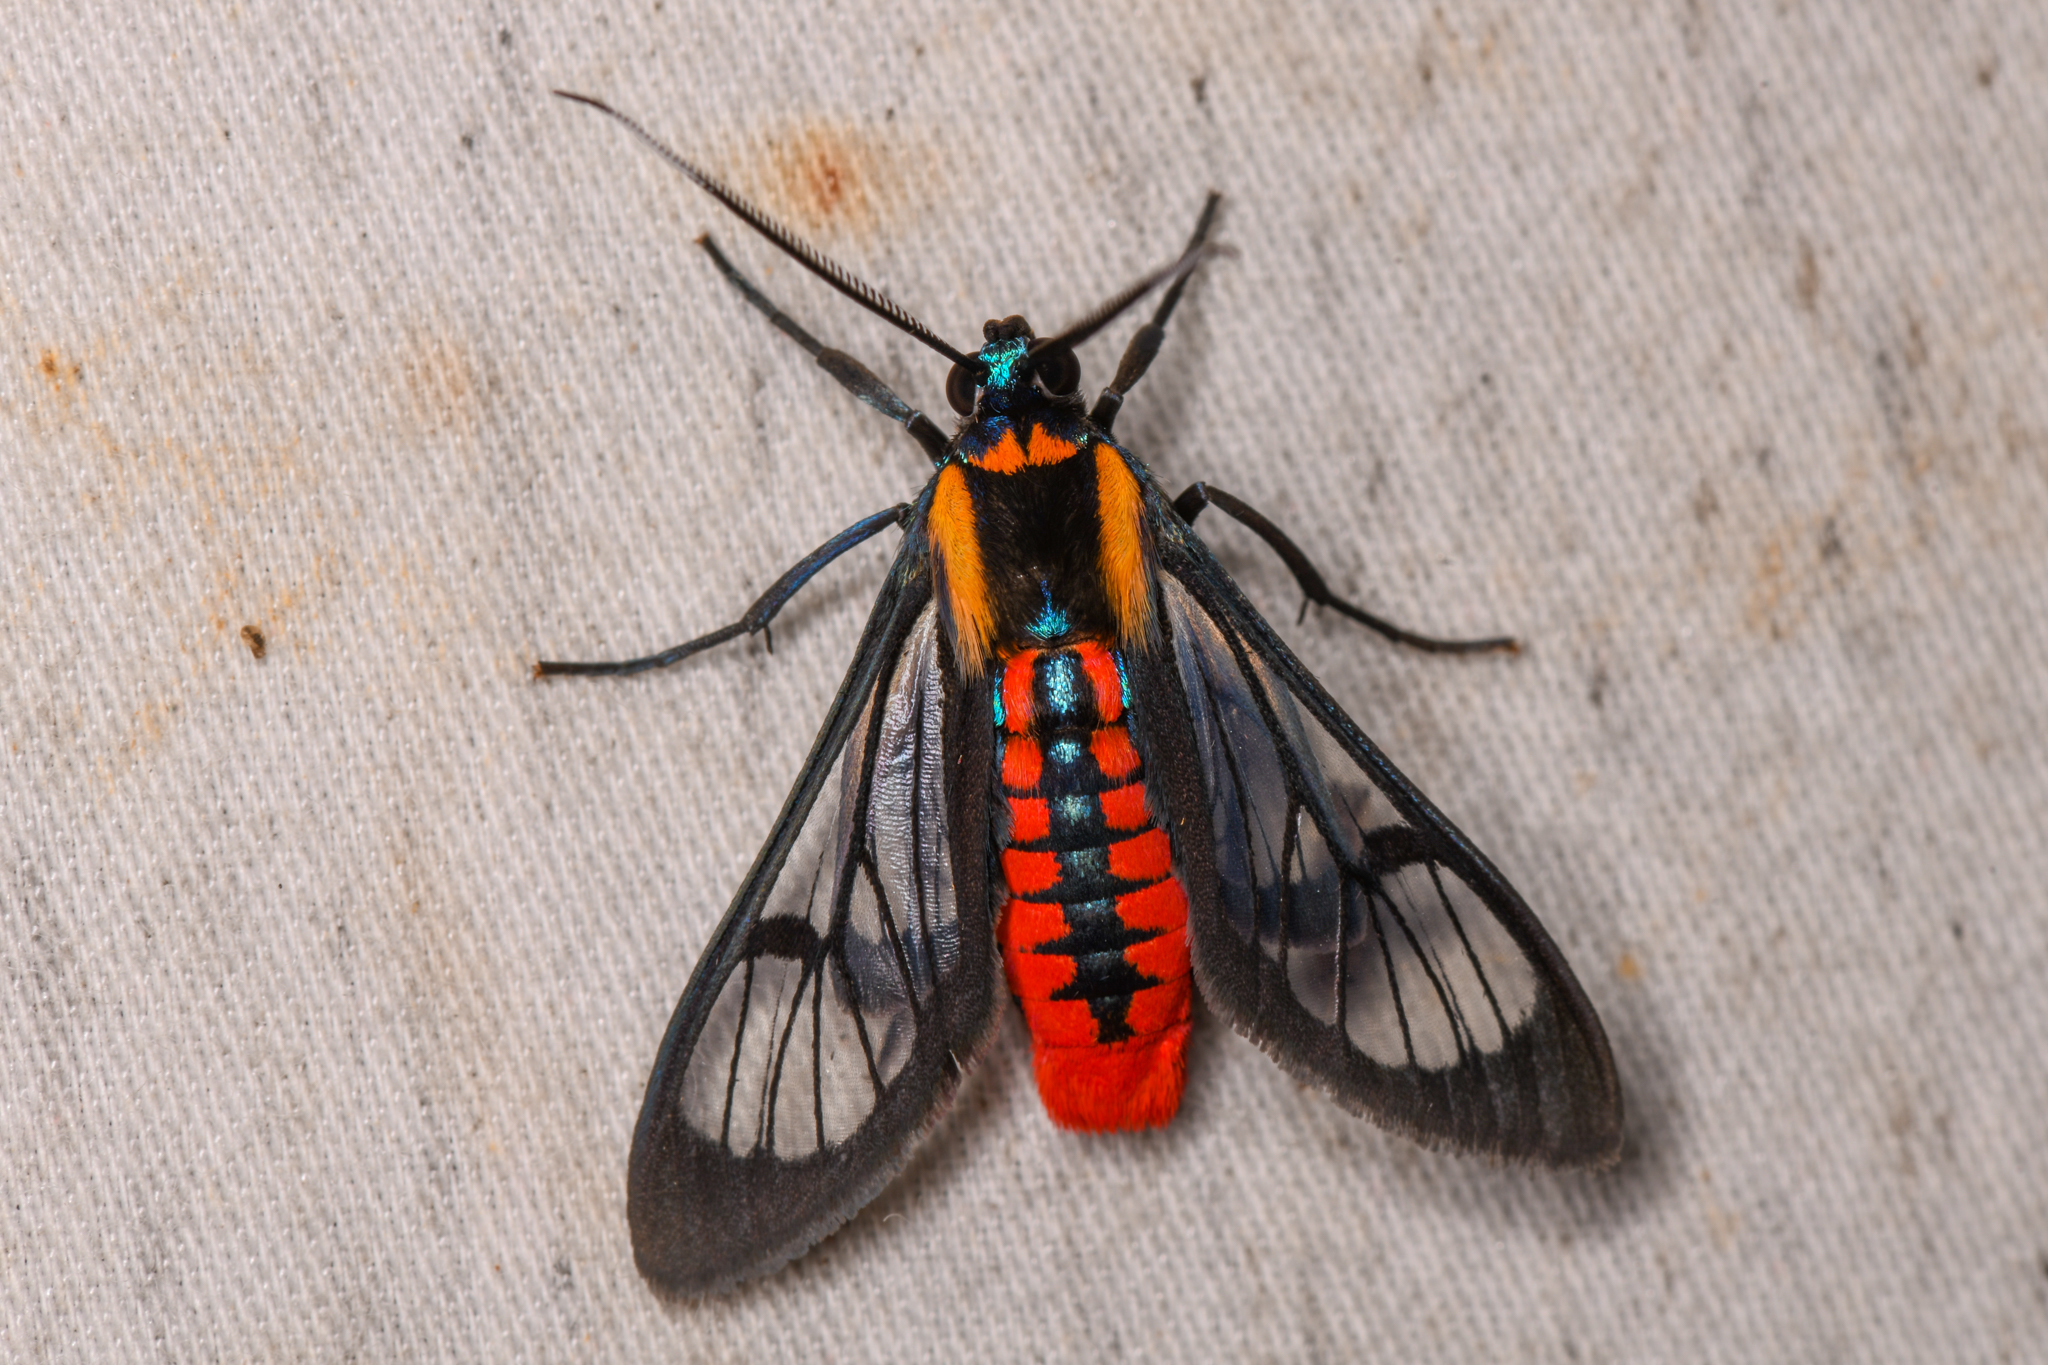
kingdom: Animalia
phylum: Arthropoda
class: Insecta
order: Lepidoptera
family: Erebidae
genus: Phoenicoprocta
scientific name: Phoenicoprocta sanguinea
